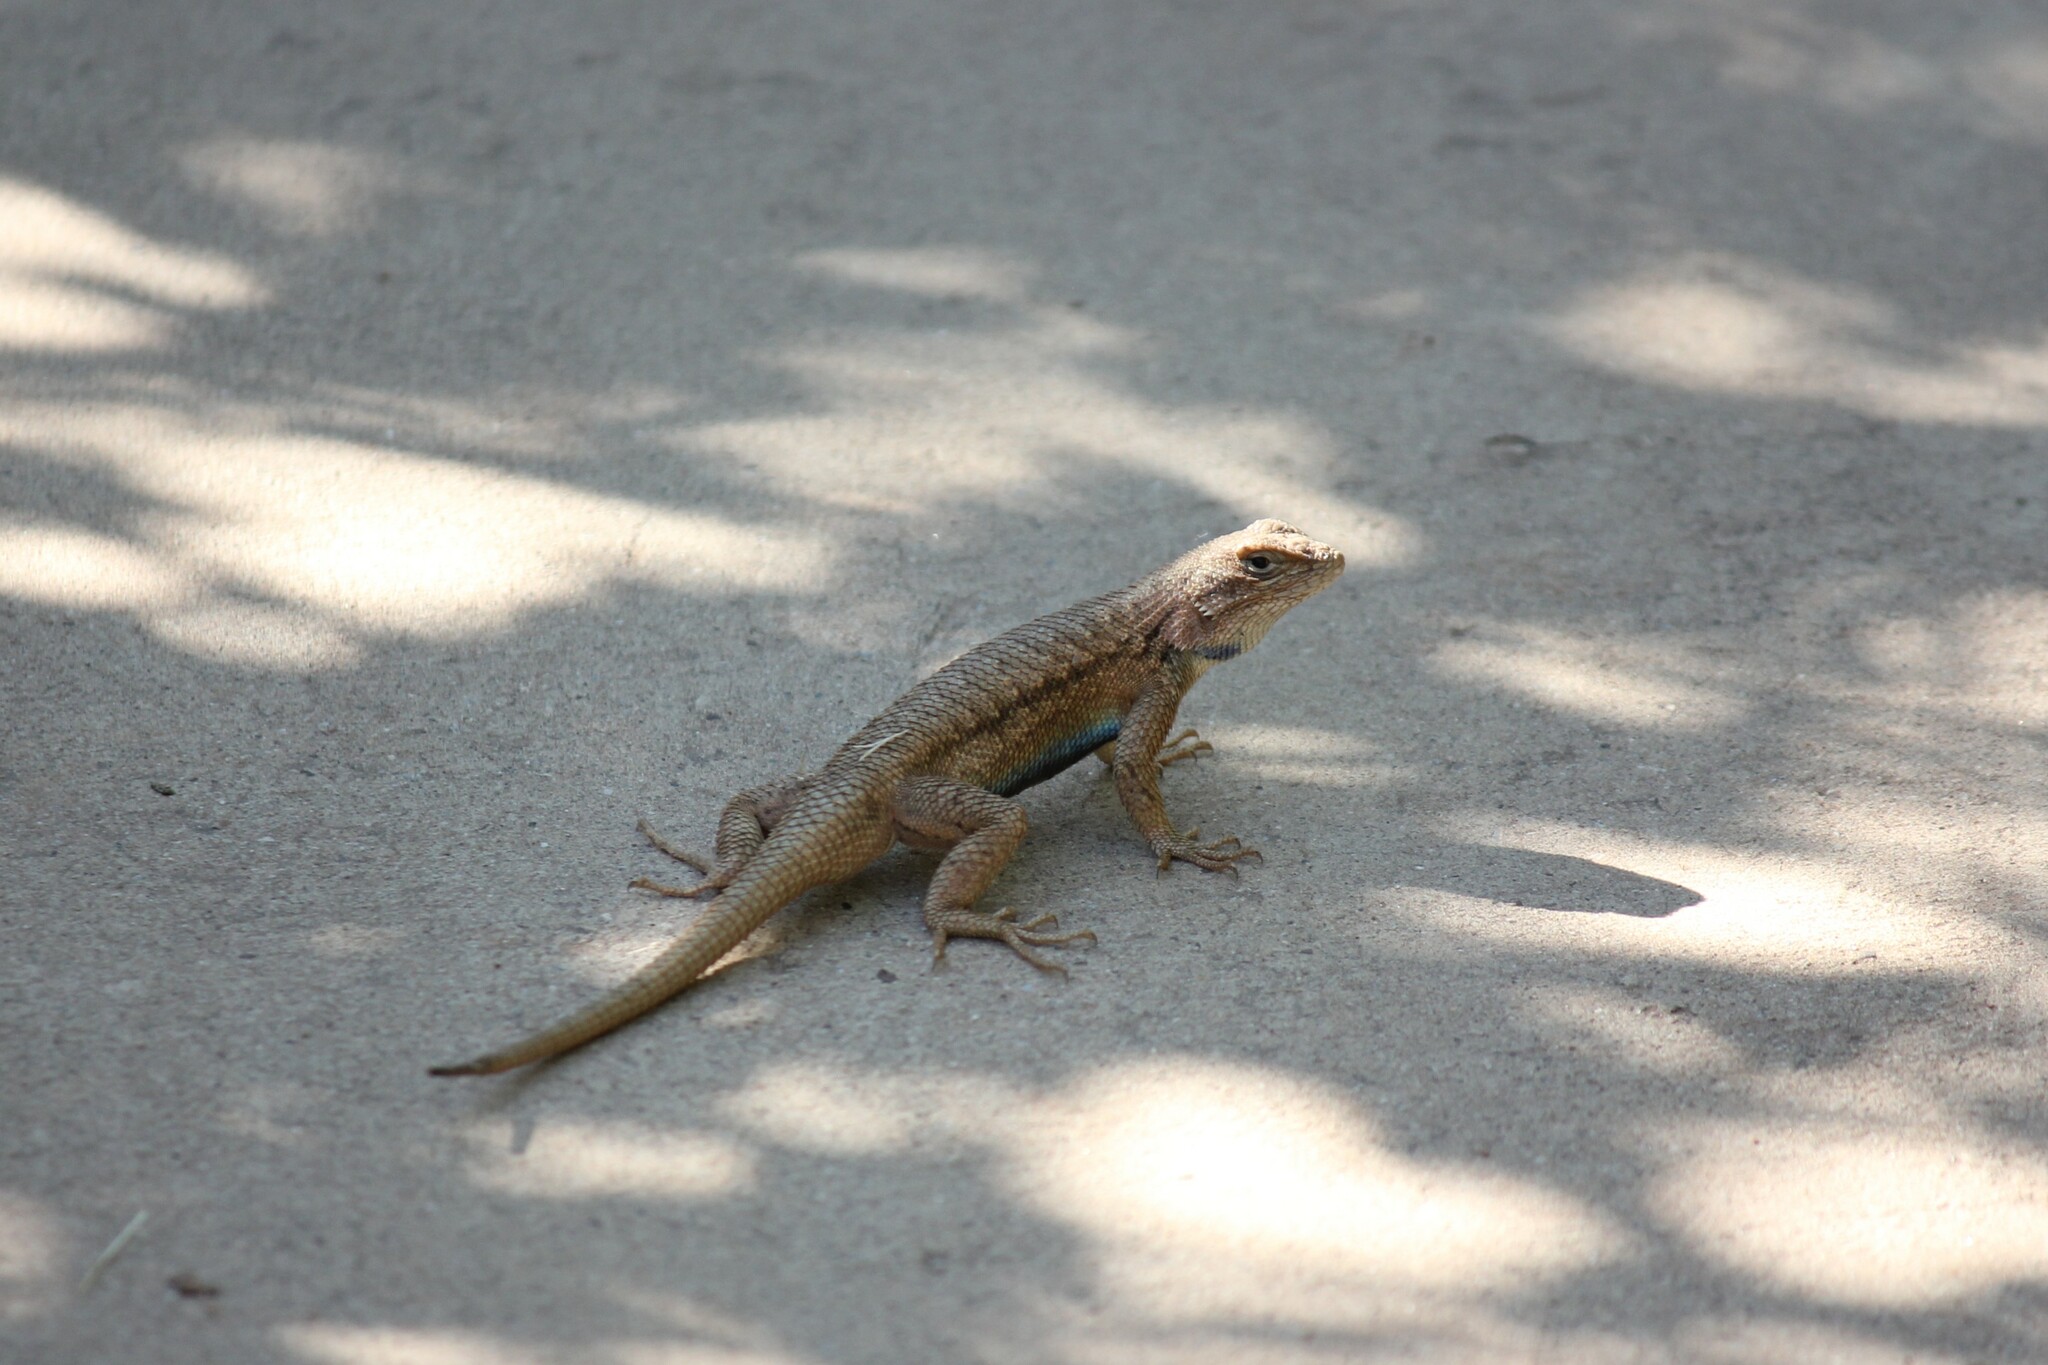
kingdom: Animalia
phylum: Chordata
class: Squamata
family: Phrynosomatidae
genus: Sceloporus
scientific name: Sceloporus tristichus
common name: Plateau fence lizard
